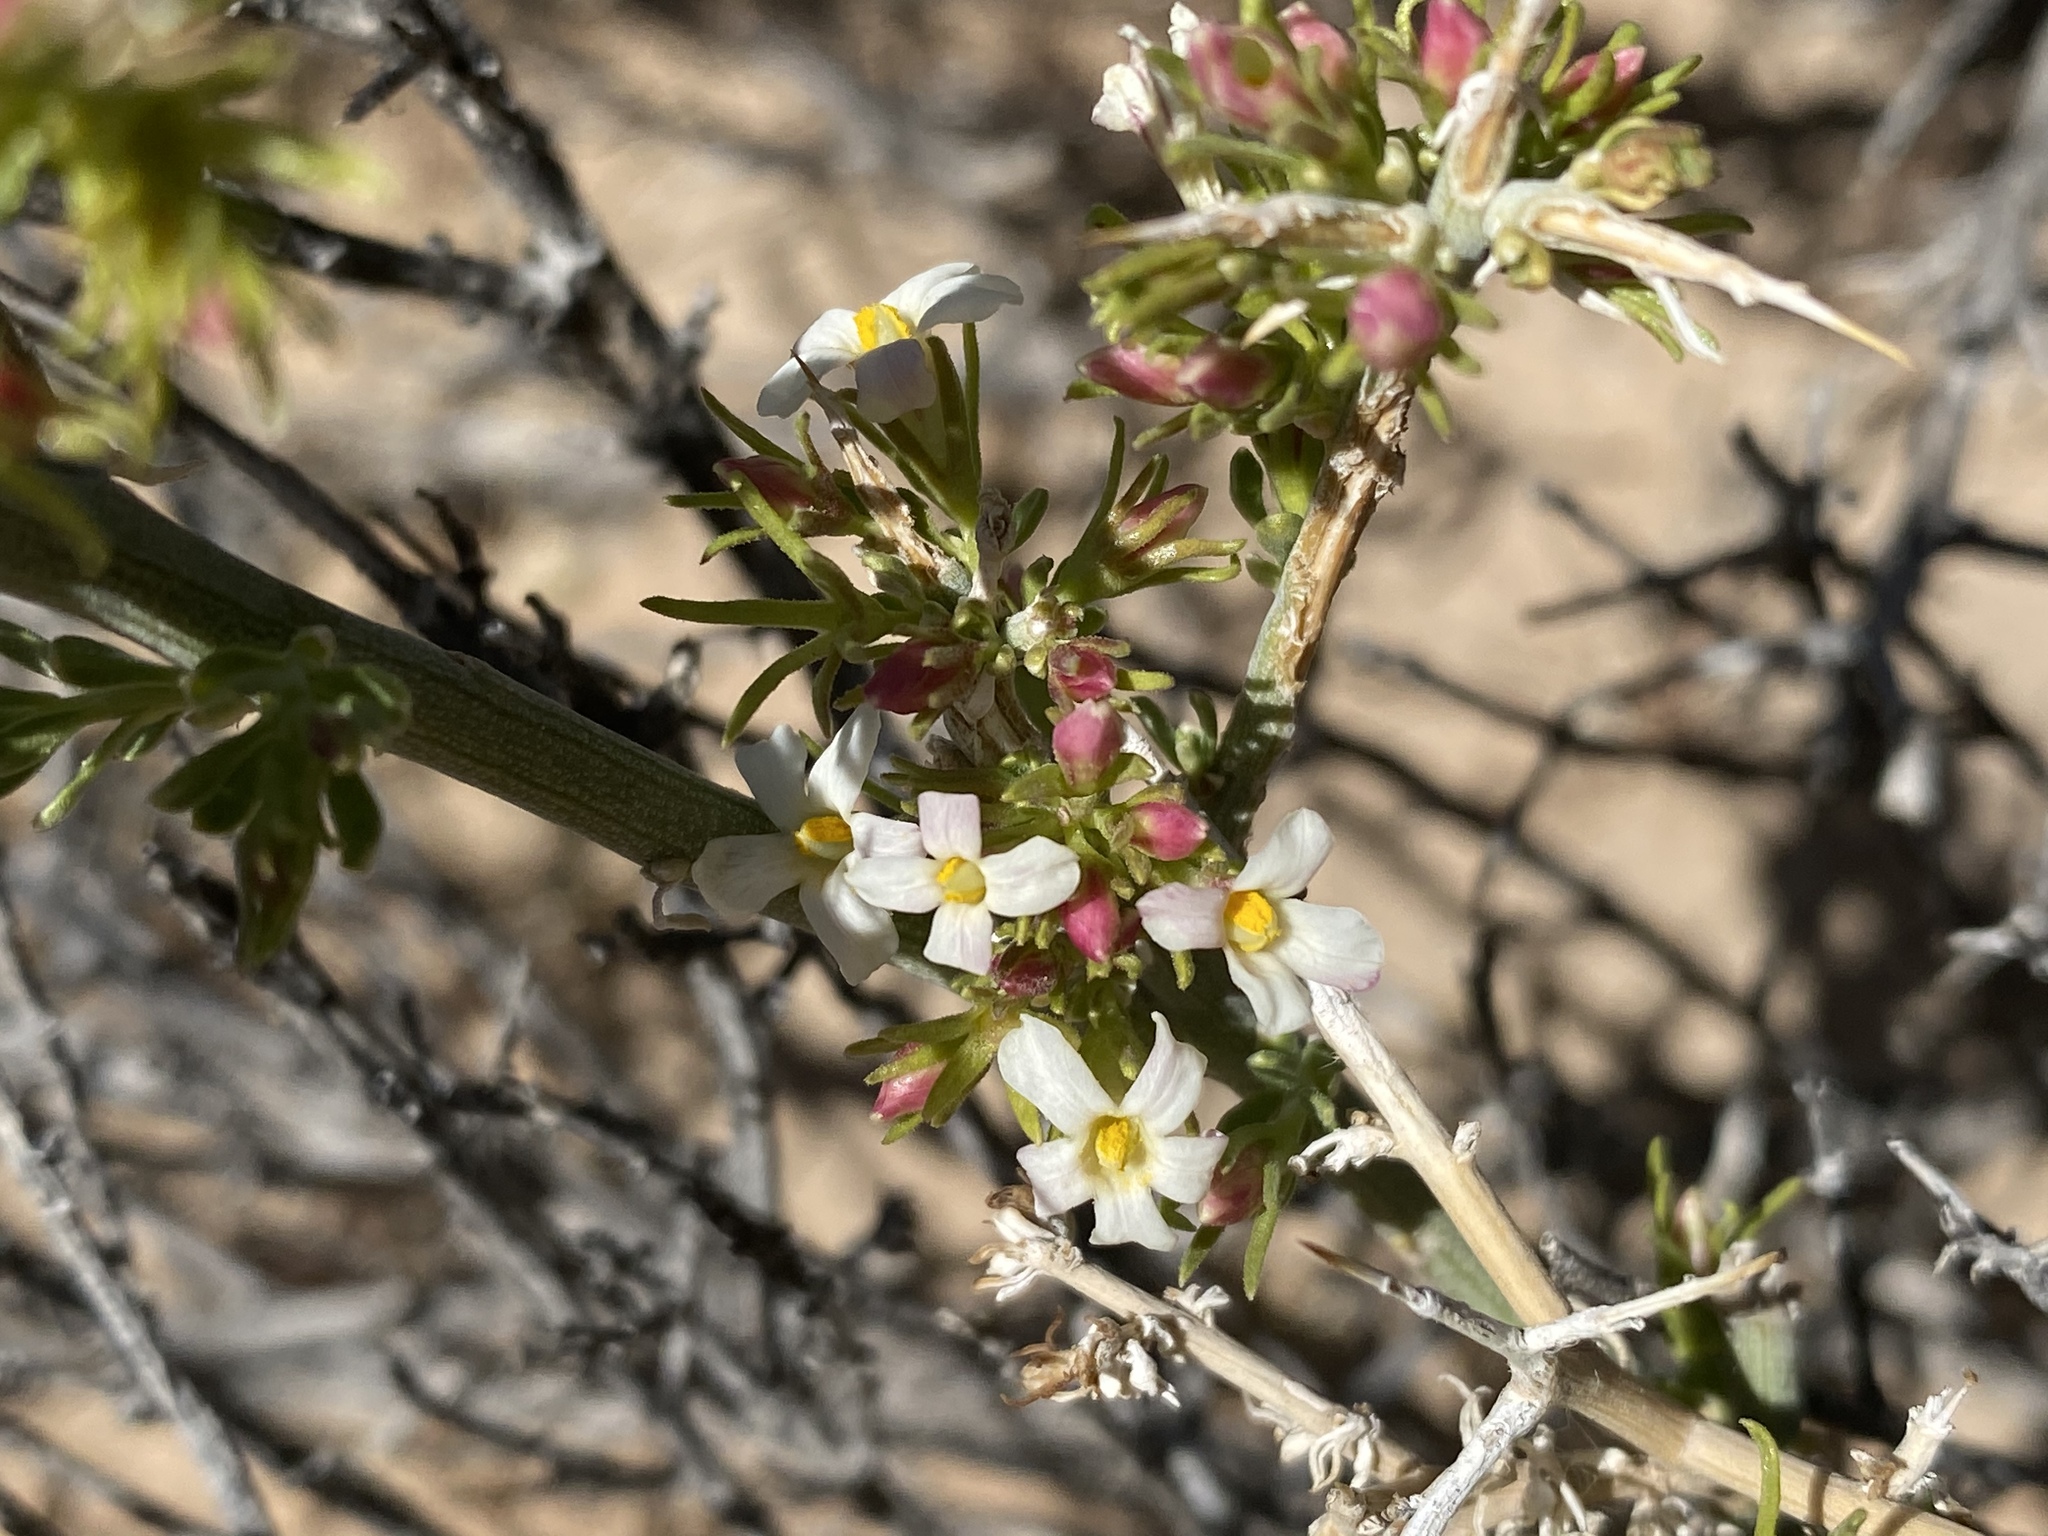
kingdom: Plantae
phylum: Tracheophyta
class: Magnoliopsida
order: Lamiales
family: Oleaceae
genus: Menodora
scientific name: Menodora spinescens
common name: Spiny menodora
